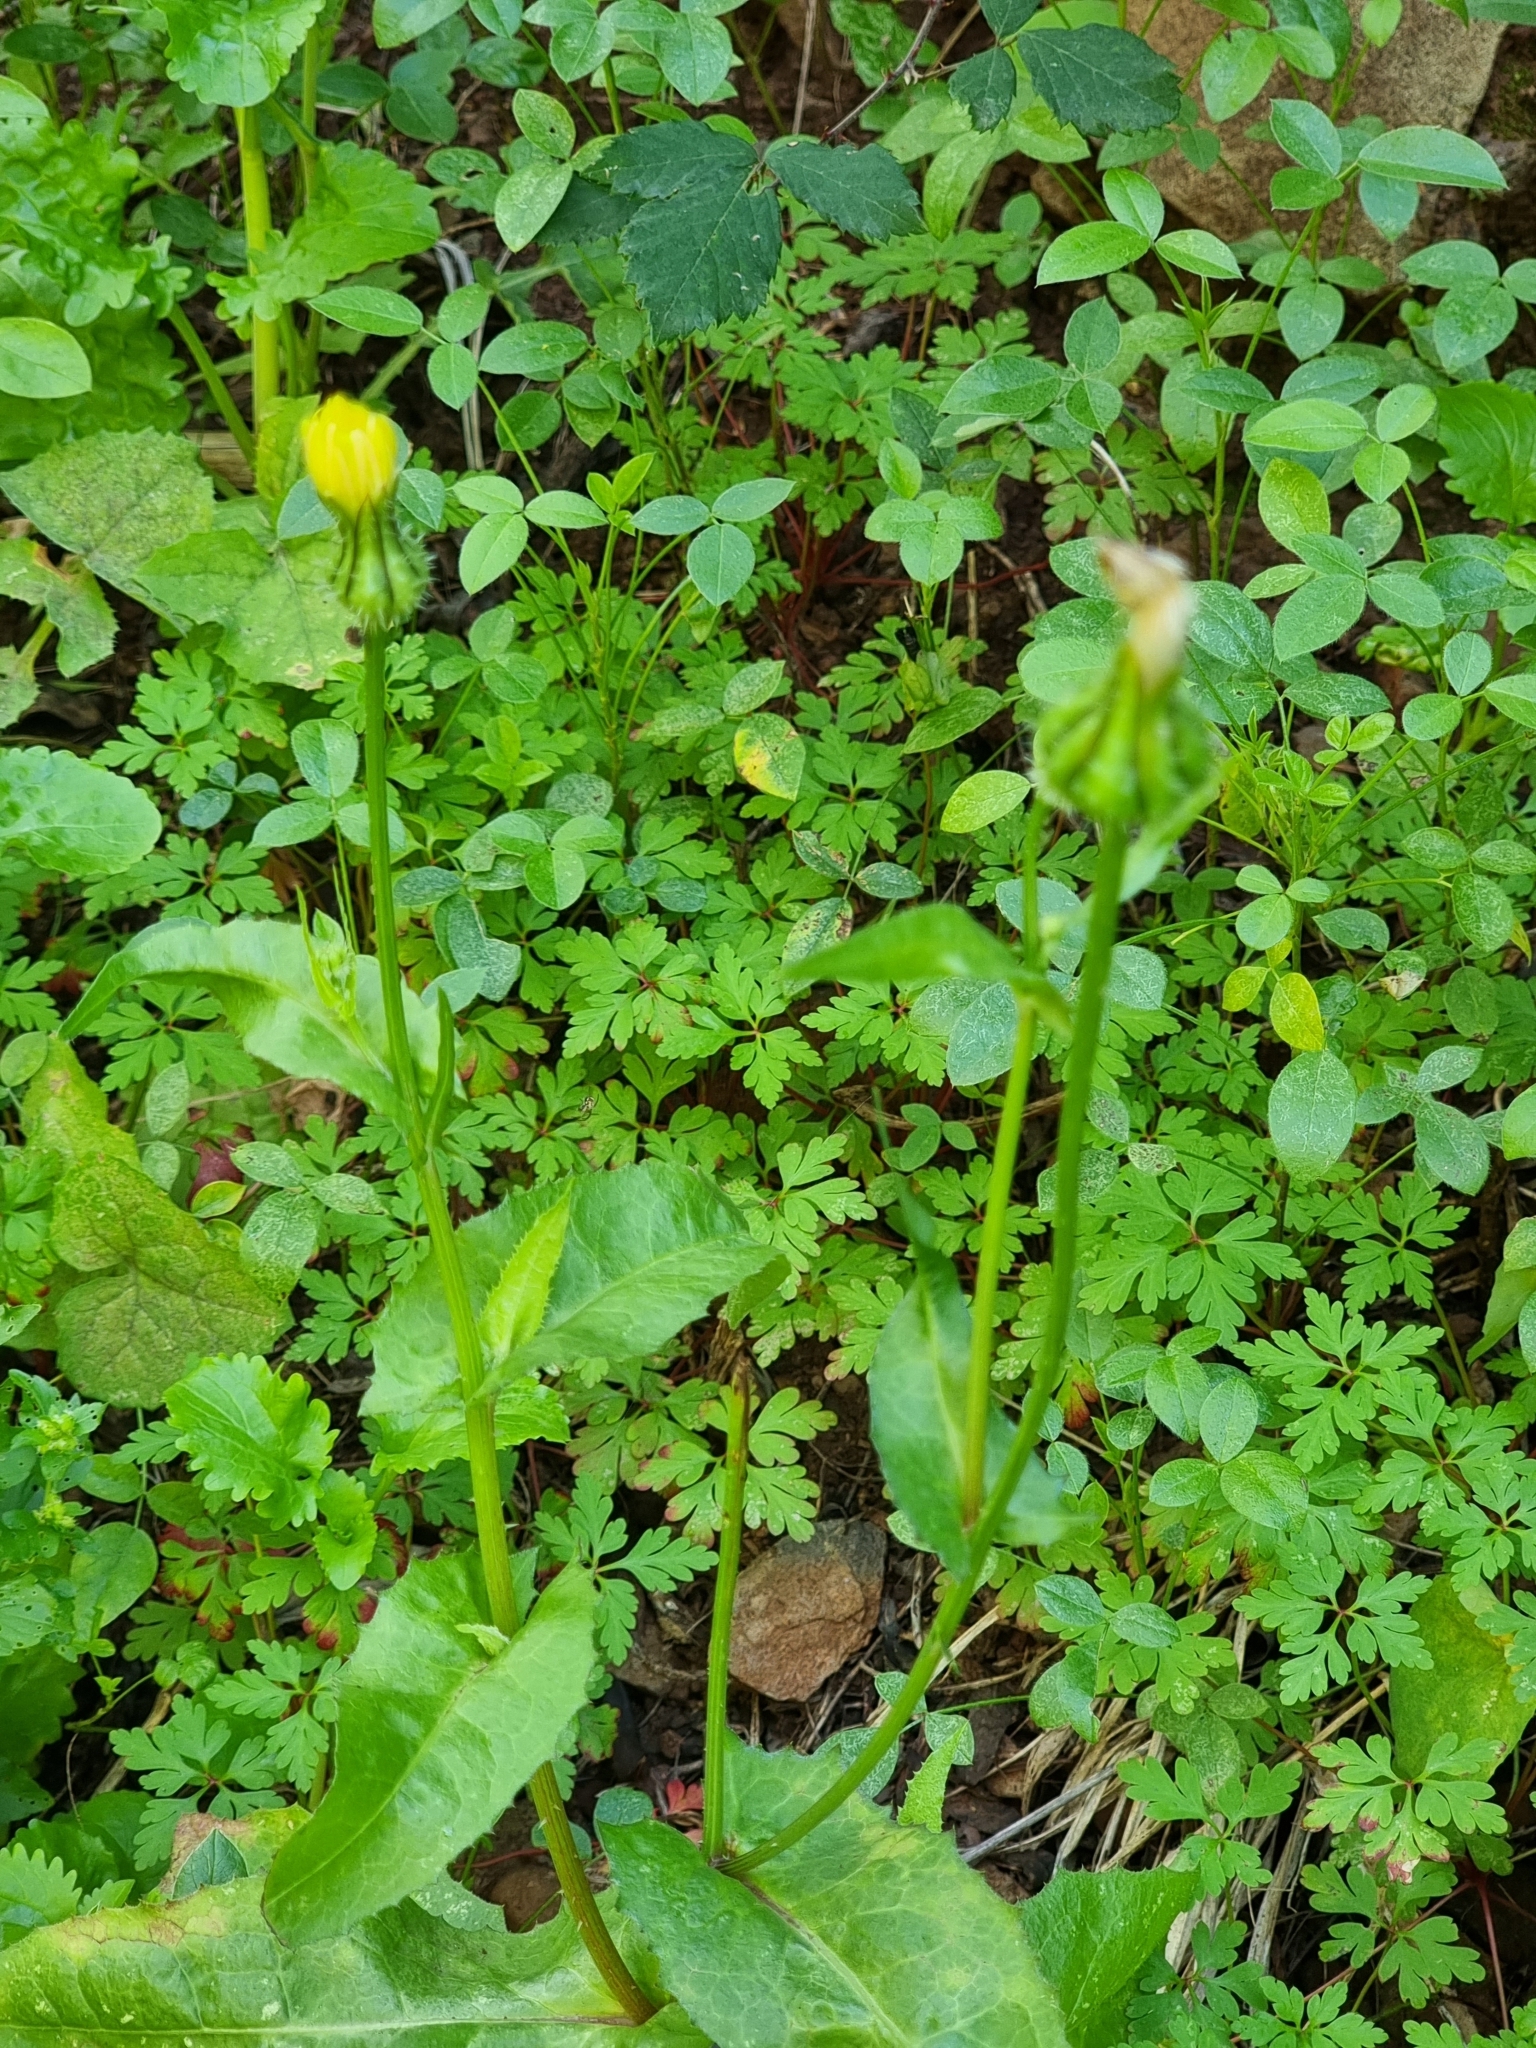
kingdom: Plantae
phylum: Tracheophyta
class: Magnoliopsida
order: Asterales
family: Asteraceae
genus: Urospermum
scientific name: Urospermum picroides
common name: False hawkbit
